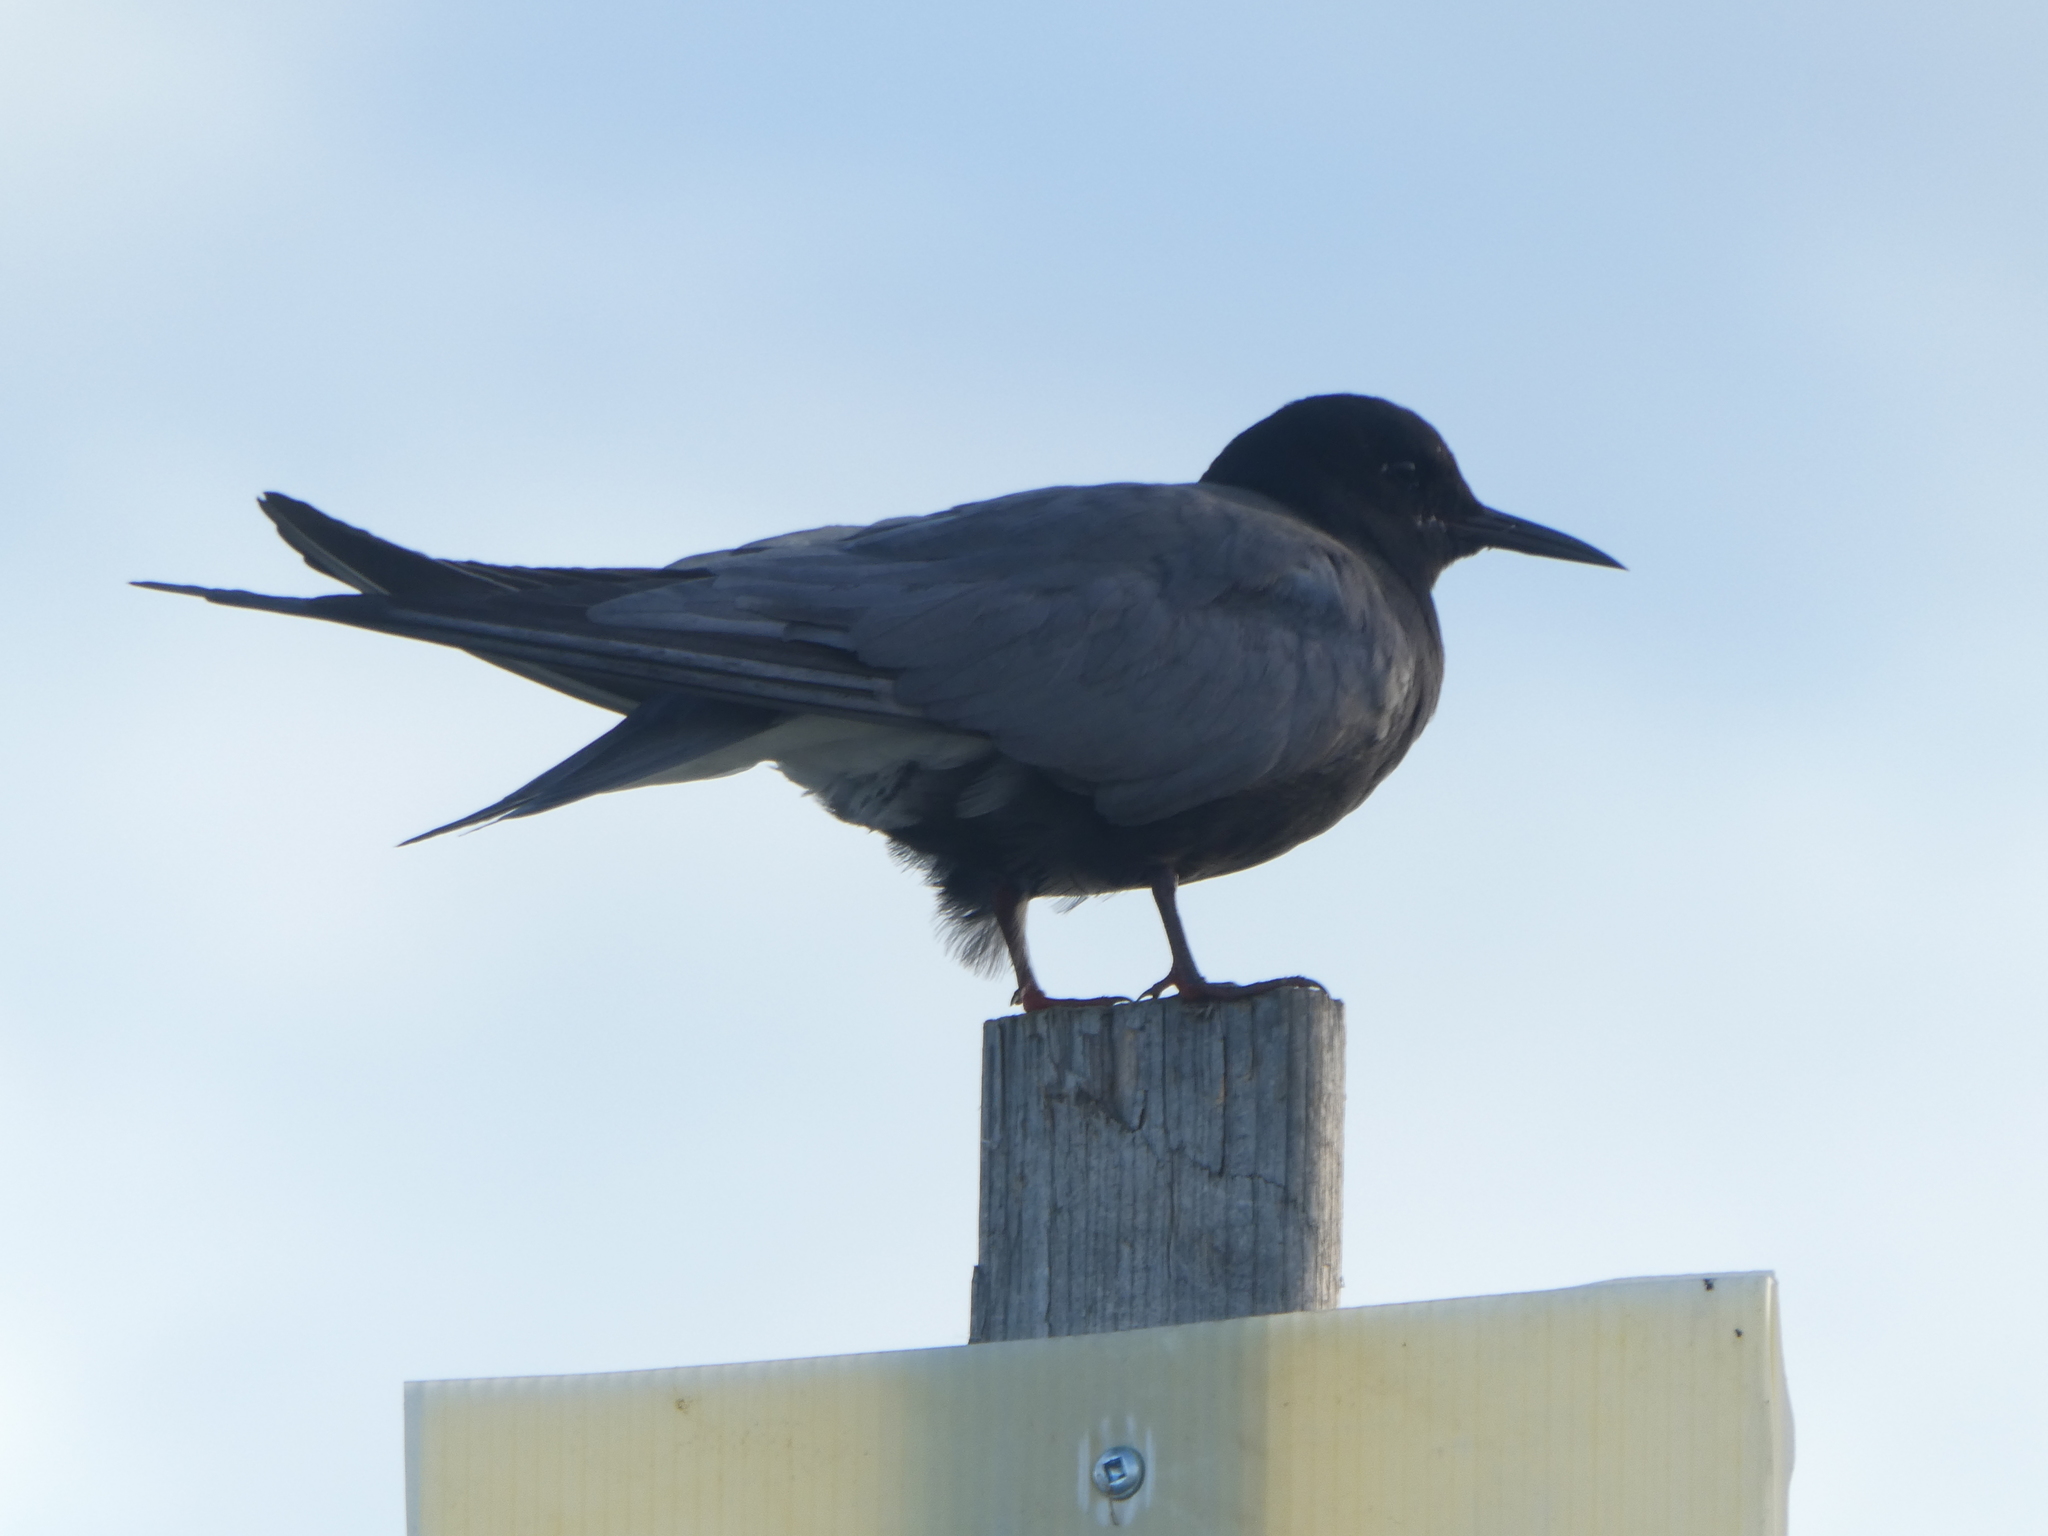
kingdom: Animalia
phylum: Chordata
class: Aves
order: Charadriiformes
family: Laridae
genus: Chlidonias
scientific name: Chlidonias niger
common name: Black tern
